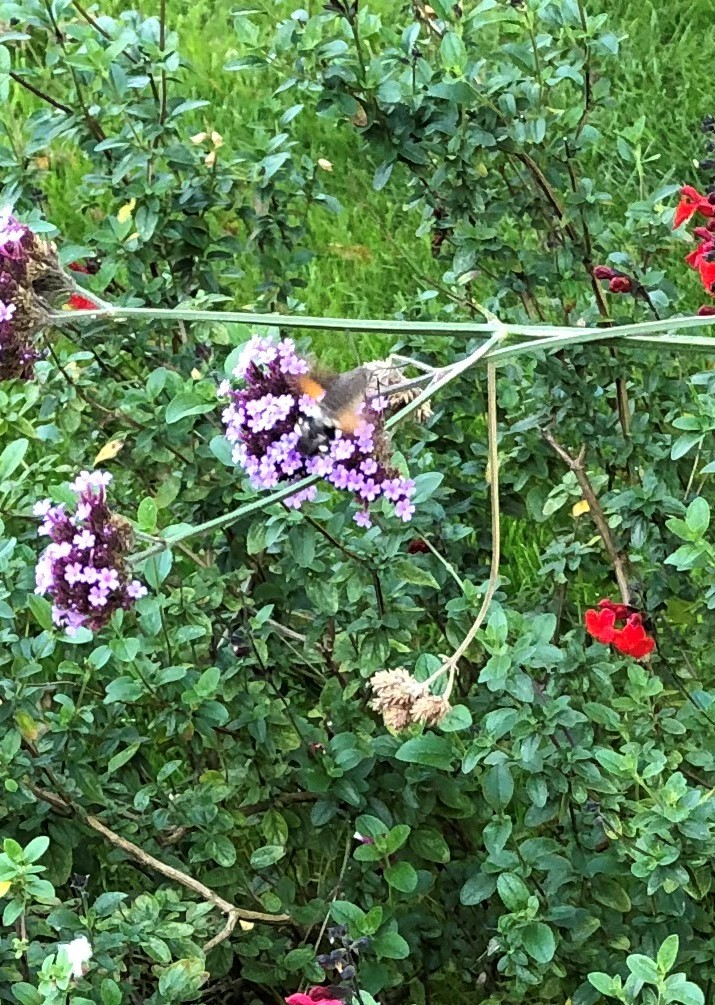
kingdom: Animalia
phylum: Arthropoda
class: Insecta
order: Lepidoptera
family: Sphingidae
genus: Macroglossum
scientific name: Macroglossum stellatarum
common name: Humming-bird hawk-moth
